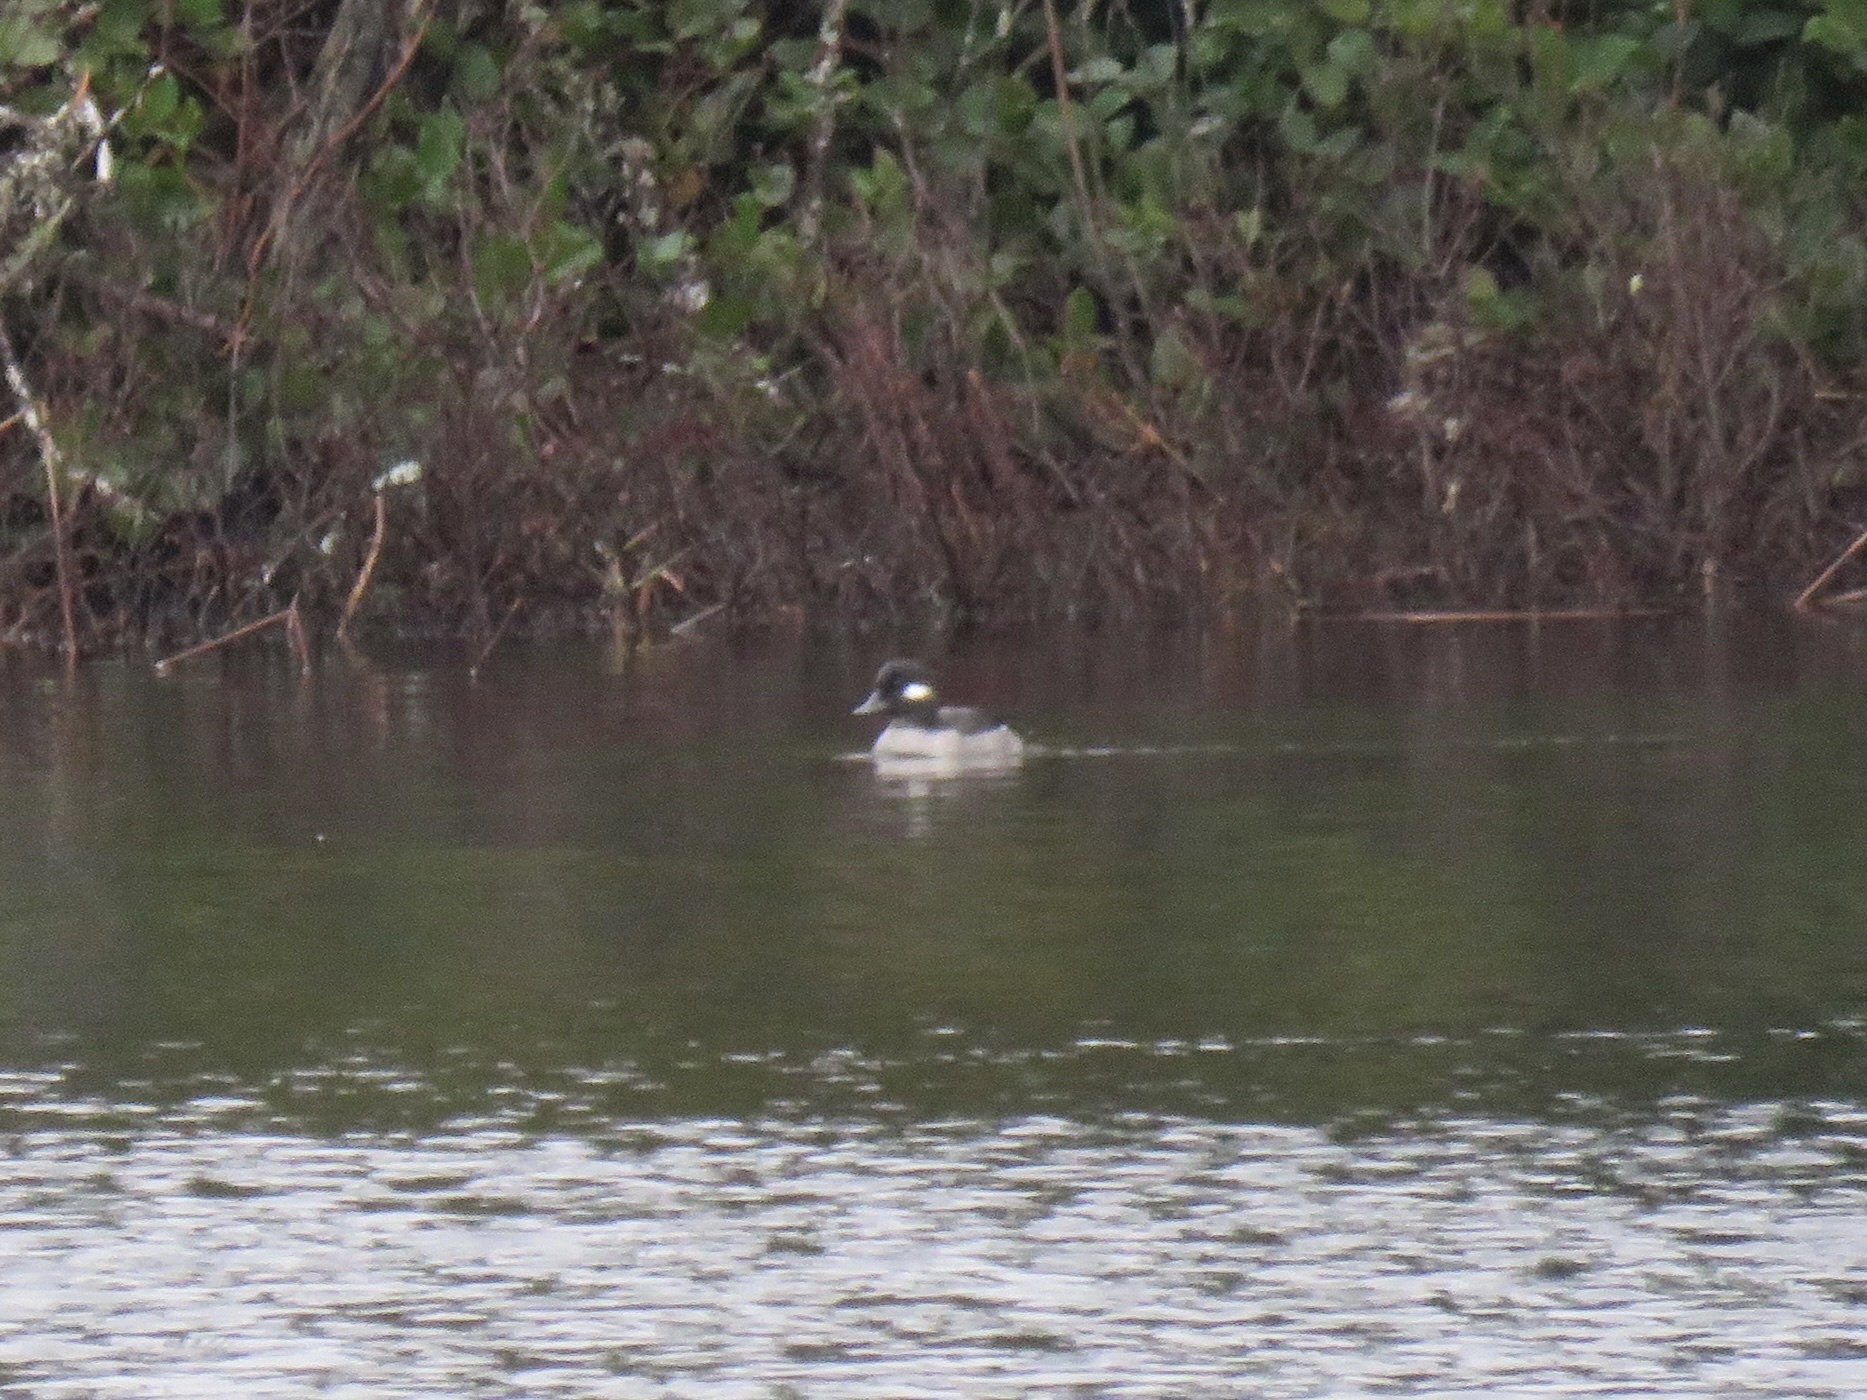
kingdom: Animalia
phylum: Chordata
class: Aves
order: Anseriformes
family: Anatidae
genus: Bucephala
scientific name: Bucephala albeola
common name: Bufflehead
